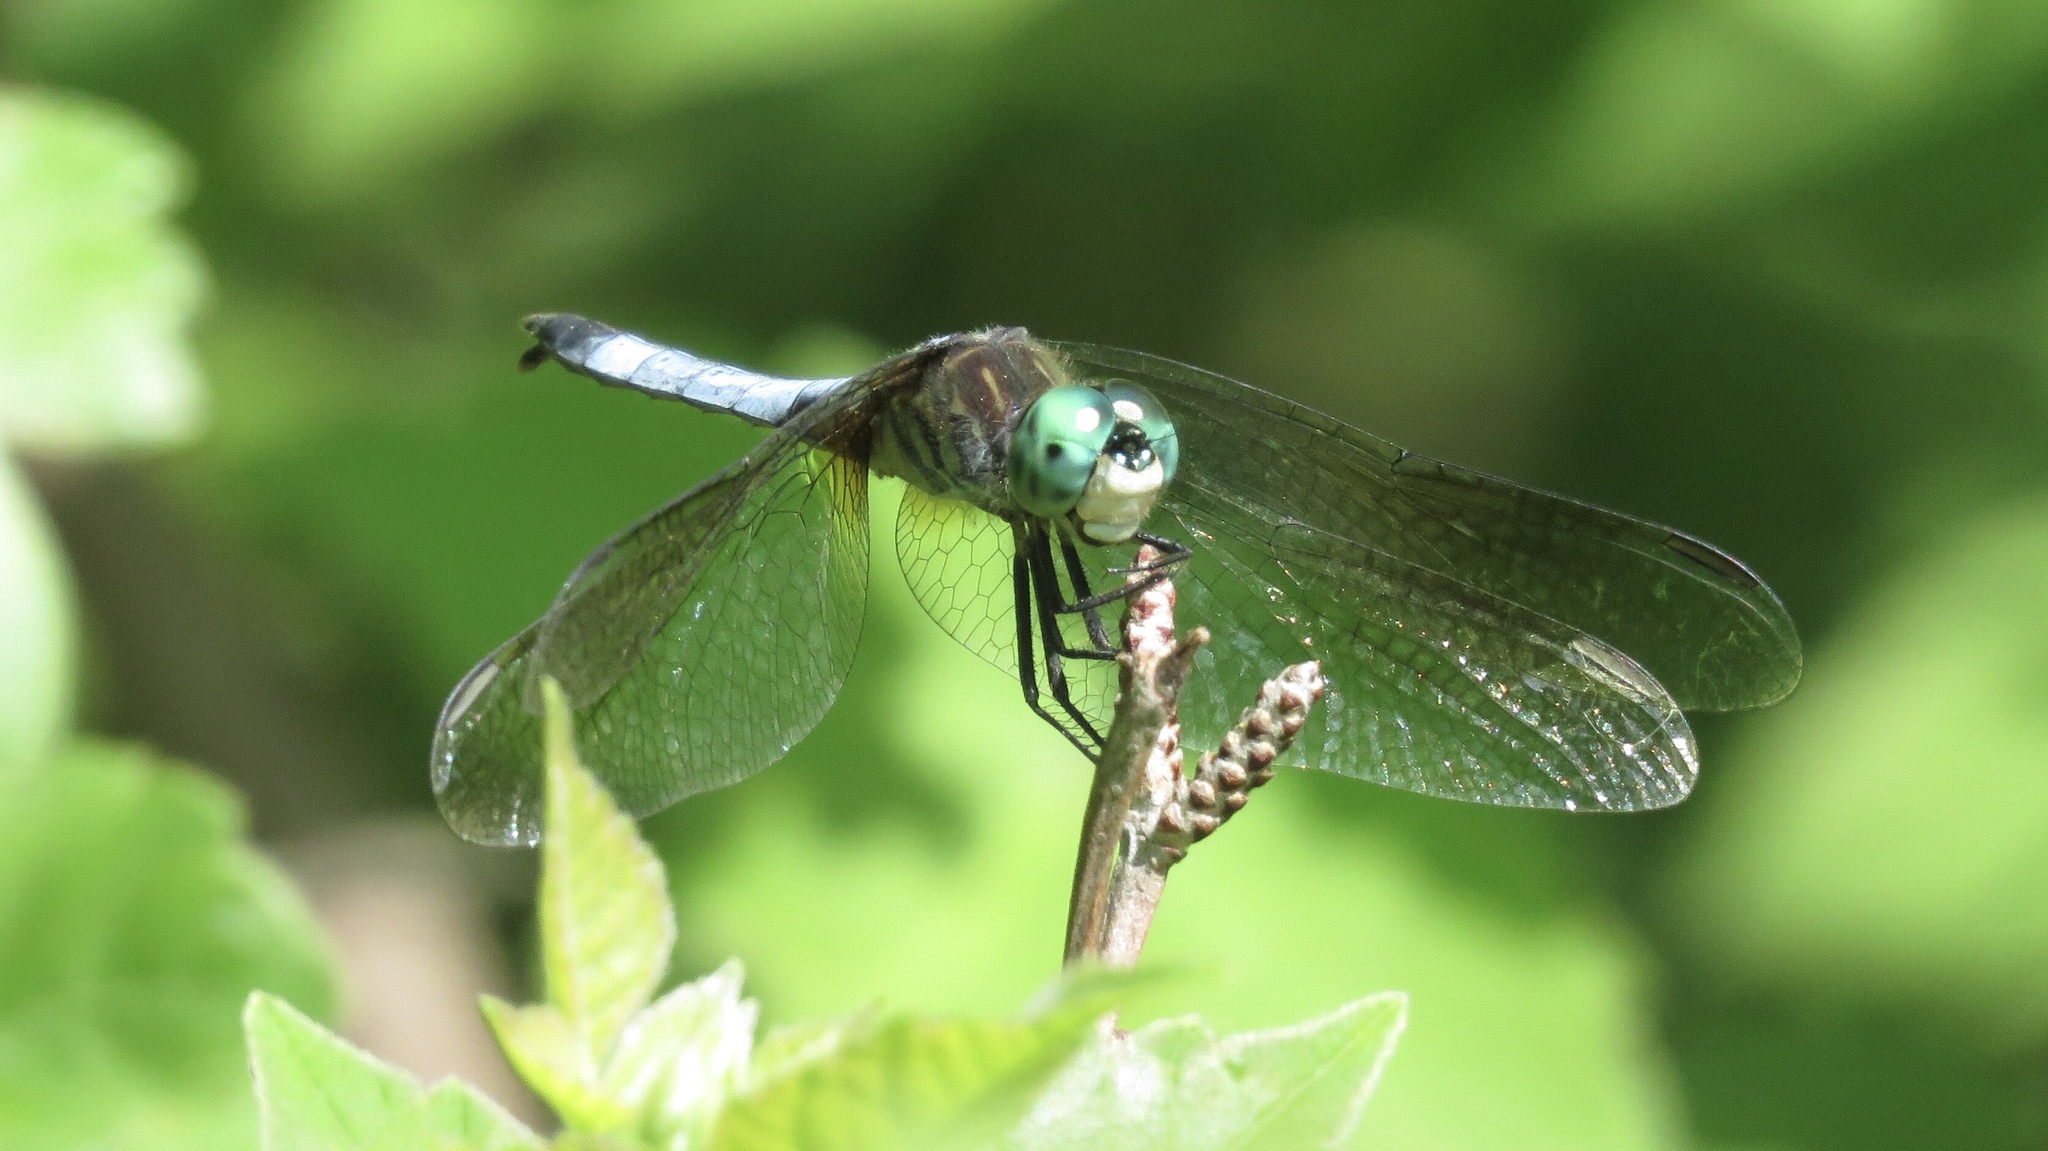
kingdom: Animalia
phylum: Arthropoda
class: Insecta
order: Odonata
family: Libellulidae
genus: Pachydiplax
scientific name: Pachydiplax longipennis
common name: Blue dasher
